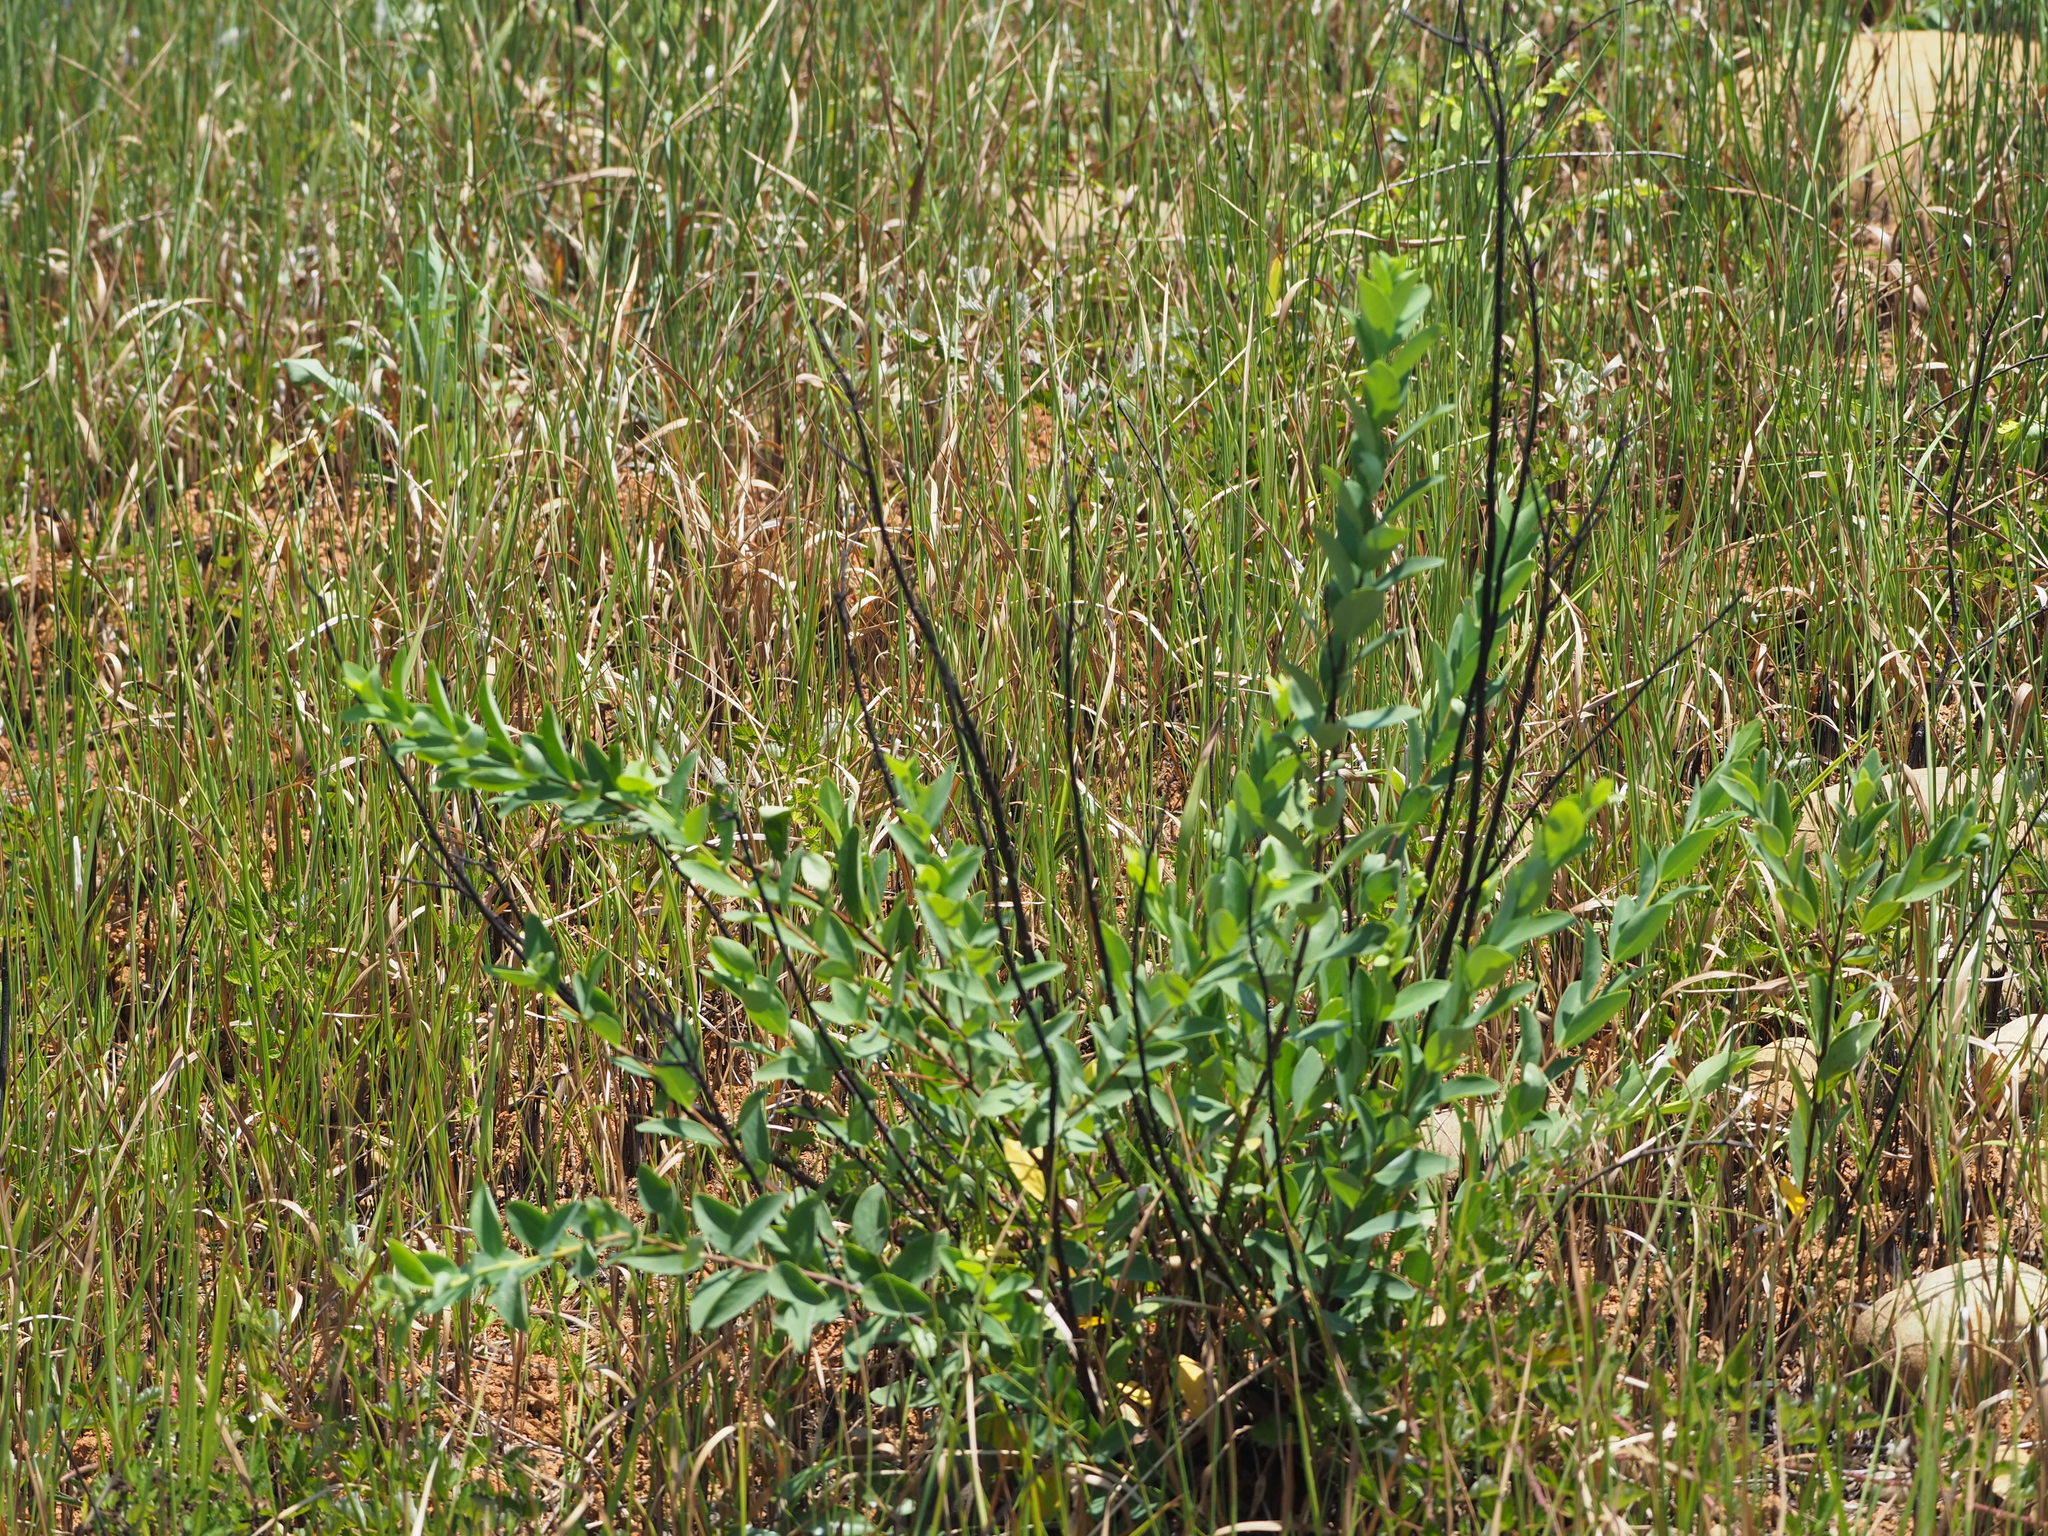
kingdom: Plantae
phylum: Tracheophyta
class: Magnoliopsida
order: Malvales
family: Thymelaeaceae
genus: Wikstroemia
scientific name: Wikstroemia indica
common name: Tiebush
